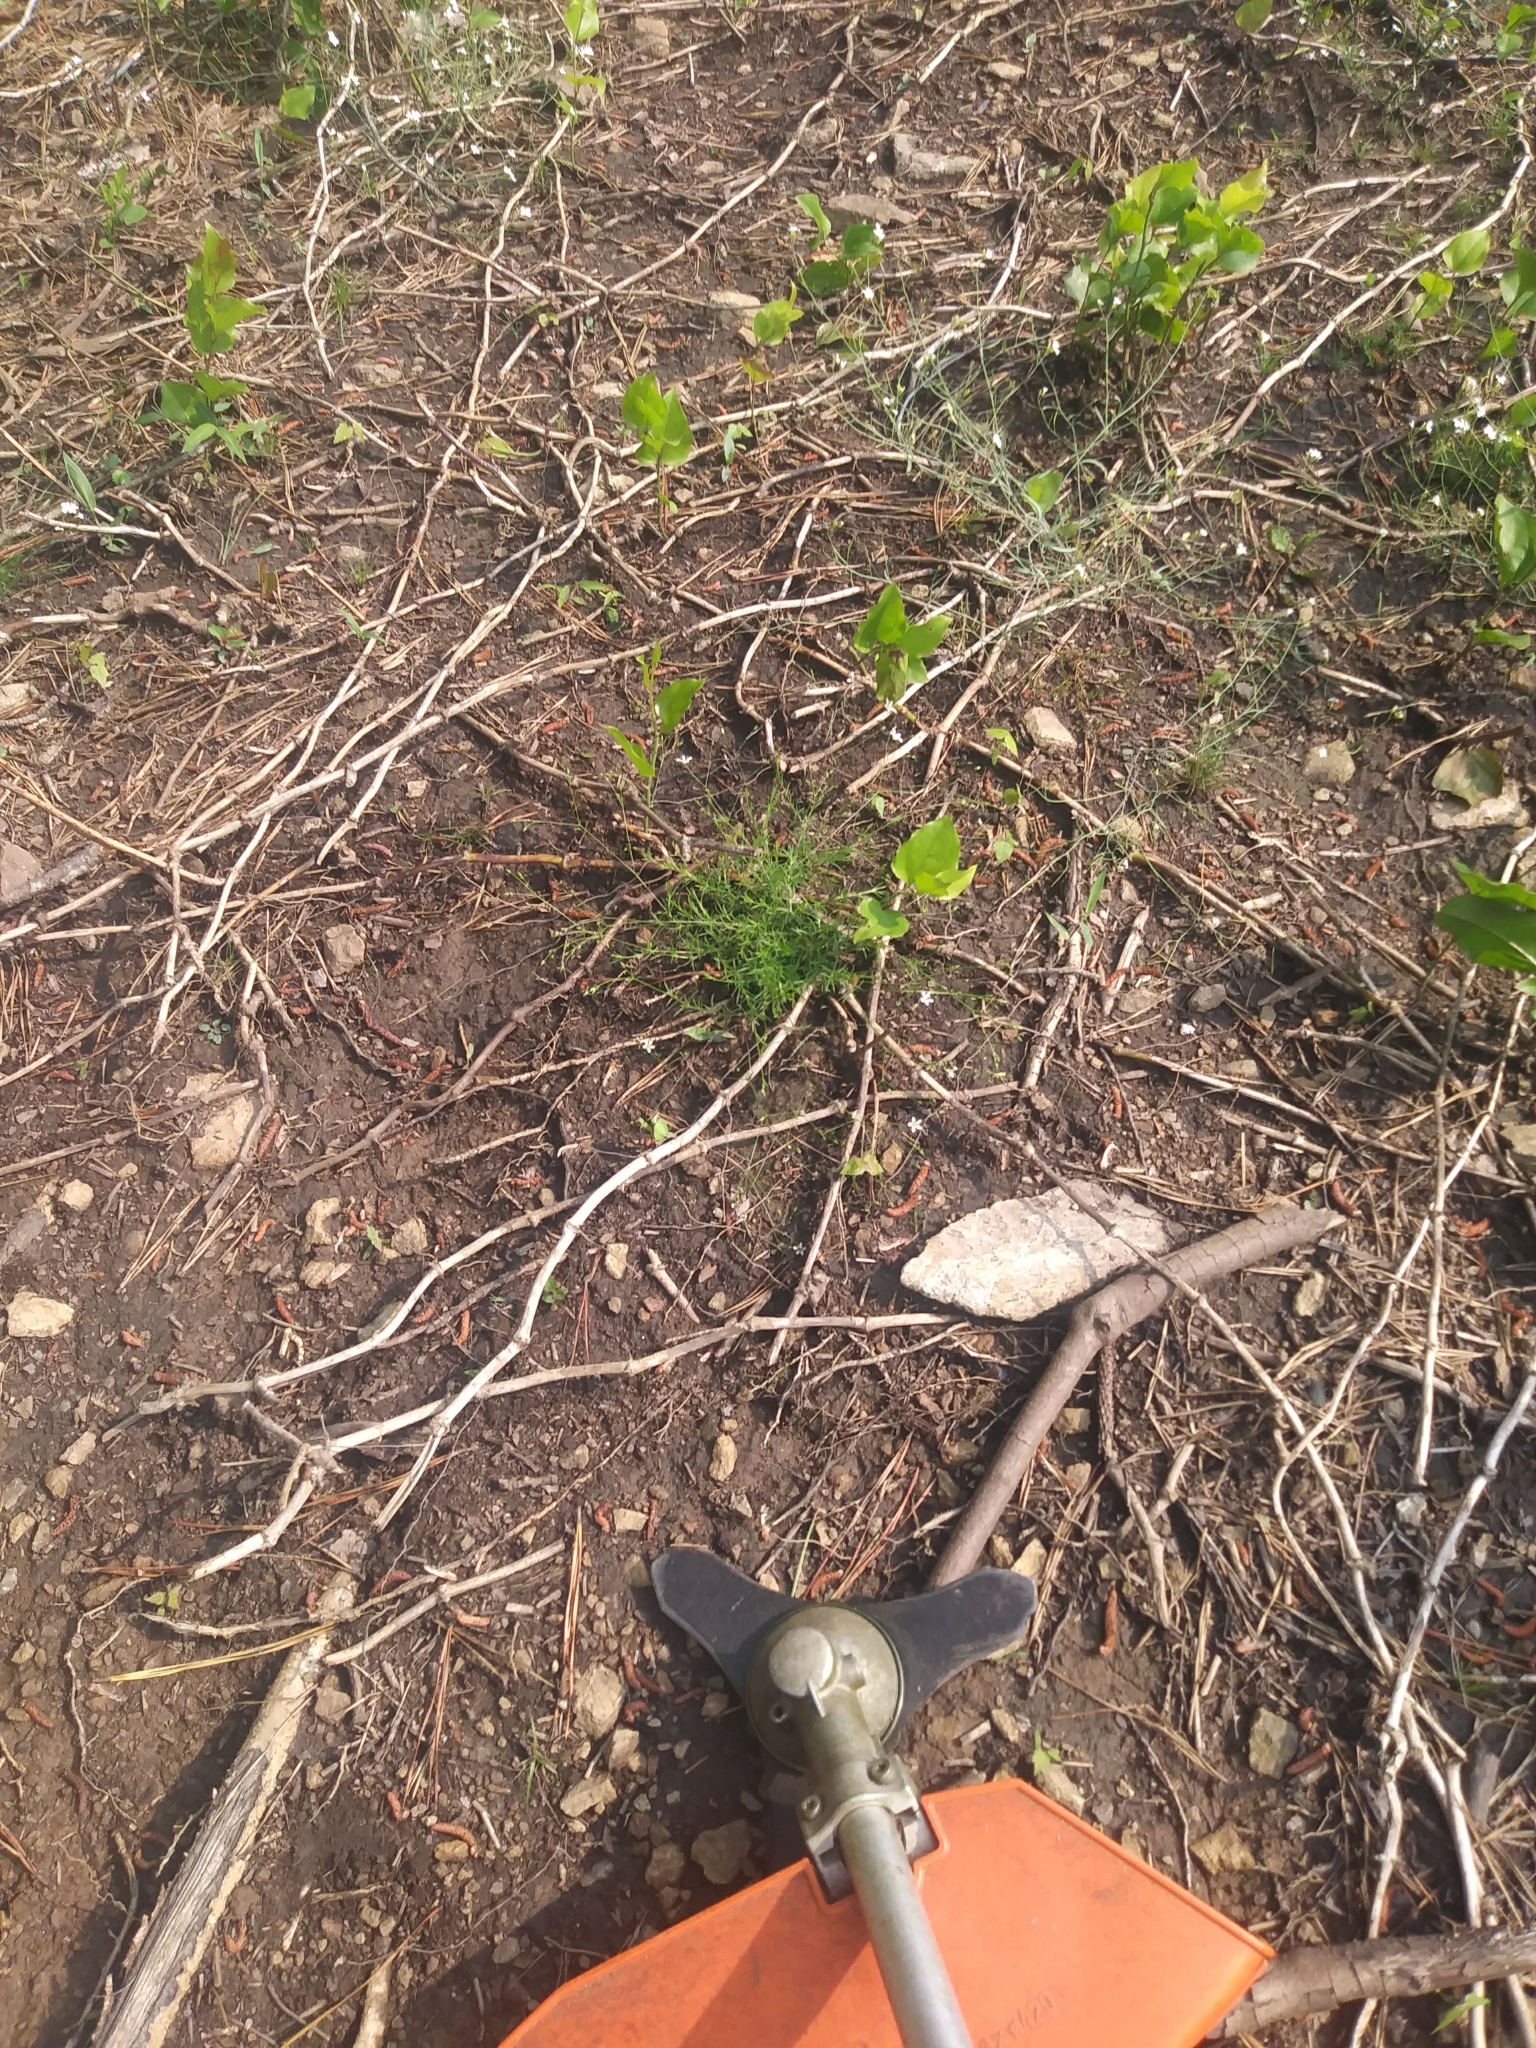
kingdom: Plantae
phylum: Tracheophyta
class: Magnoliopsida
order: Caryophyllales
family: Caryophyllaceae
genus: Sabulina
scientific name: Sabulina michauxii
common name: Michaux's stitchwort
